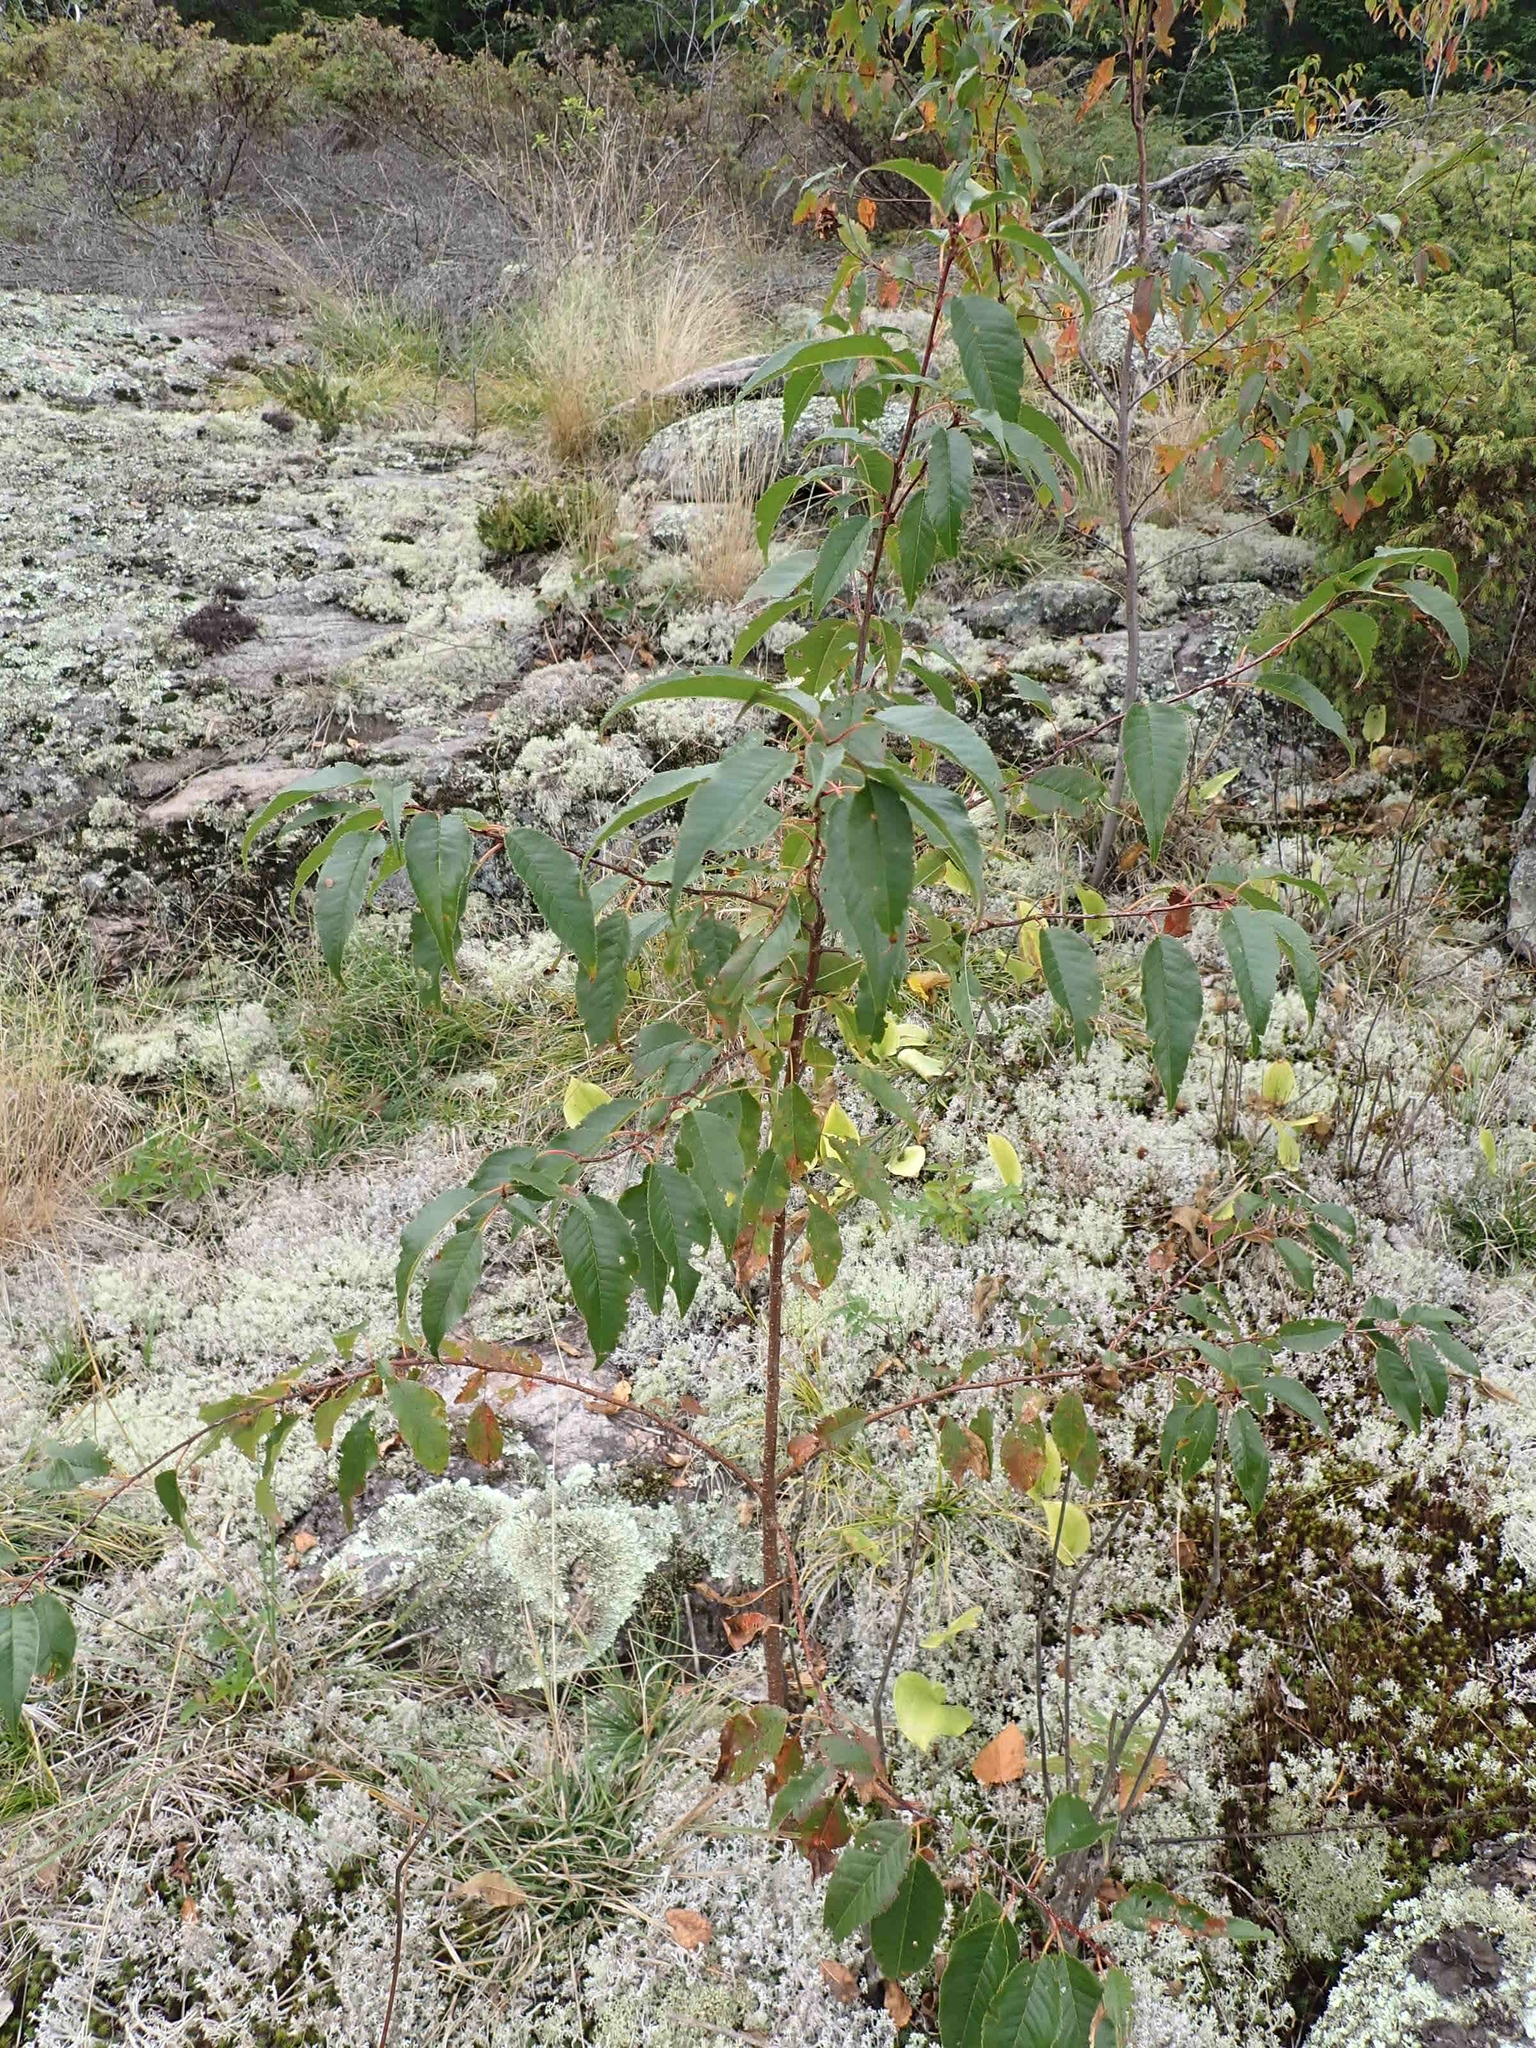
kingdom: Plantae
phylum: Tracheophyta
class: Magnoliopsida
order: Rosales
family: Rosaceae
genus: Prunus
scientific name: Prunus pensylvanica
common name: Pin cherry
